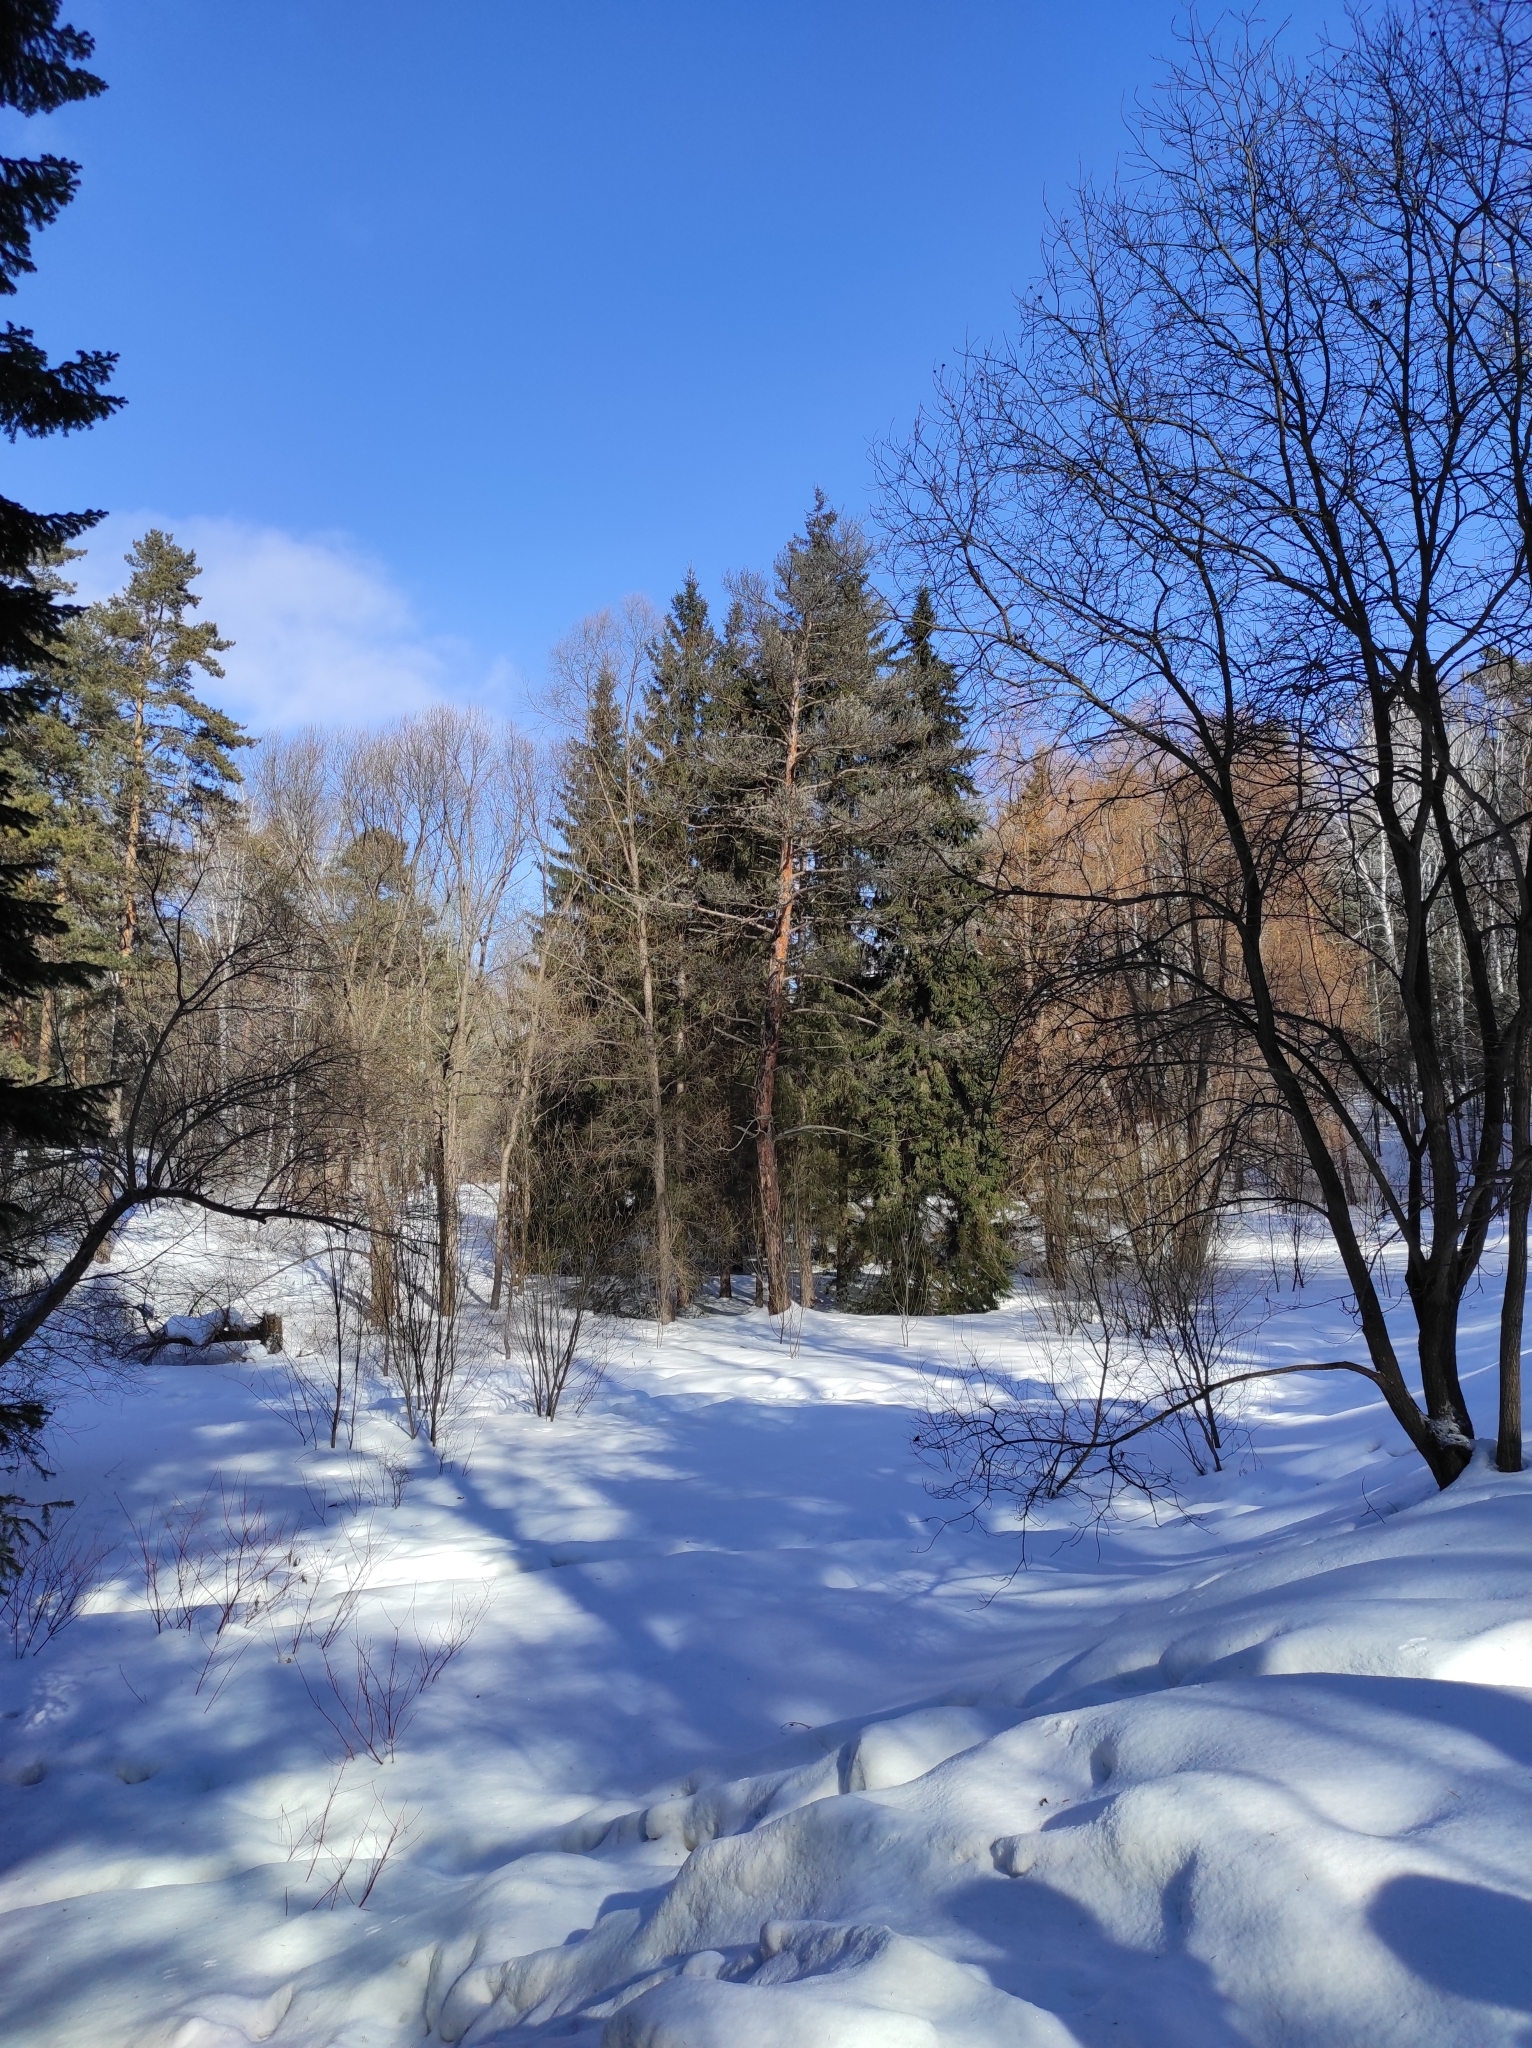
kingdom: Plantae
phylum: Tracheophyta
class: Pinopsida
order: Pinales
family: Pinaceae
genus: Pinus
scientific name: Pinus sylvestris
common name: Scots pine
